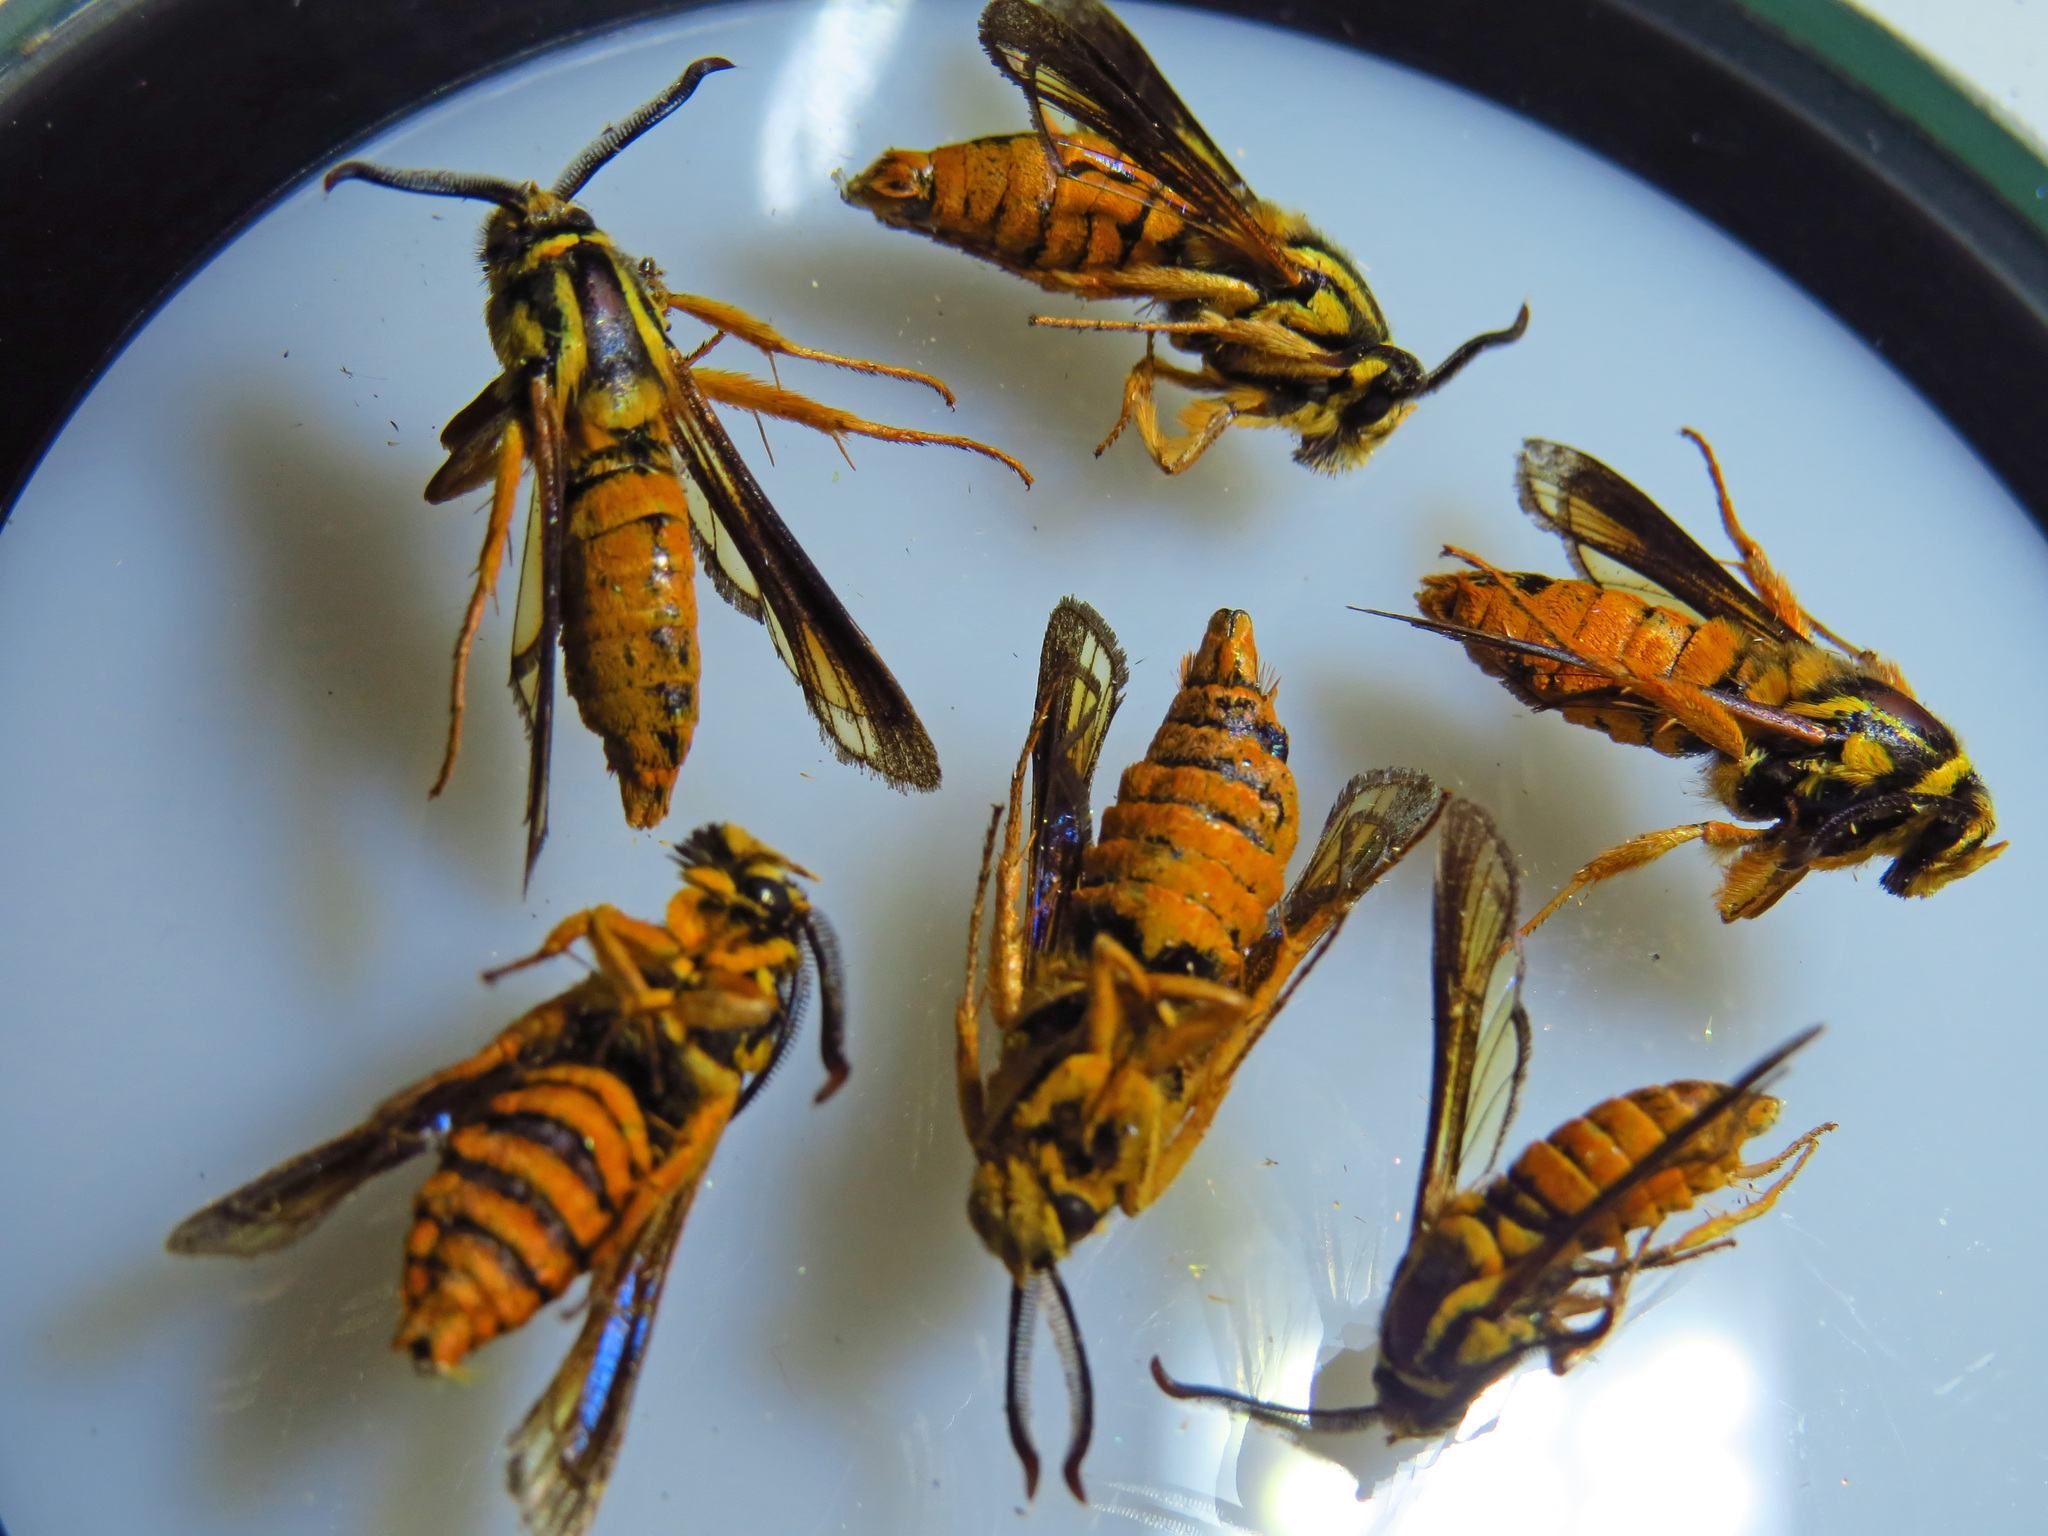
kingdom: Animalia
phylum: Arthropoda
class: Insecta
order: Lepidoptera
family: Sesiidae
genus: Paranthrene
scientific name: Paranthrene simulans
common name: Hornet clearwing moth
